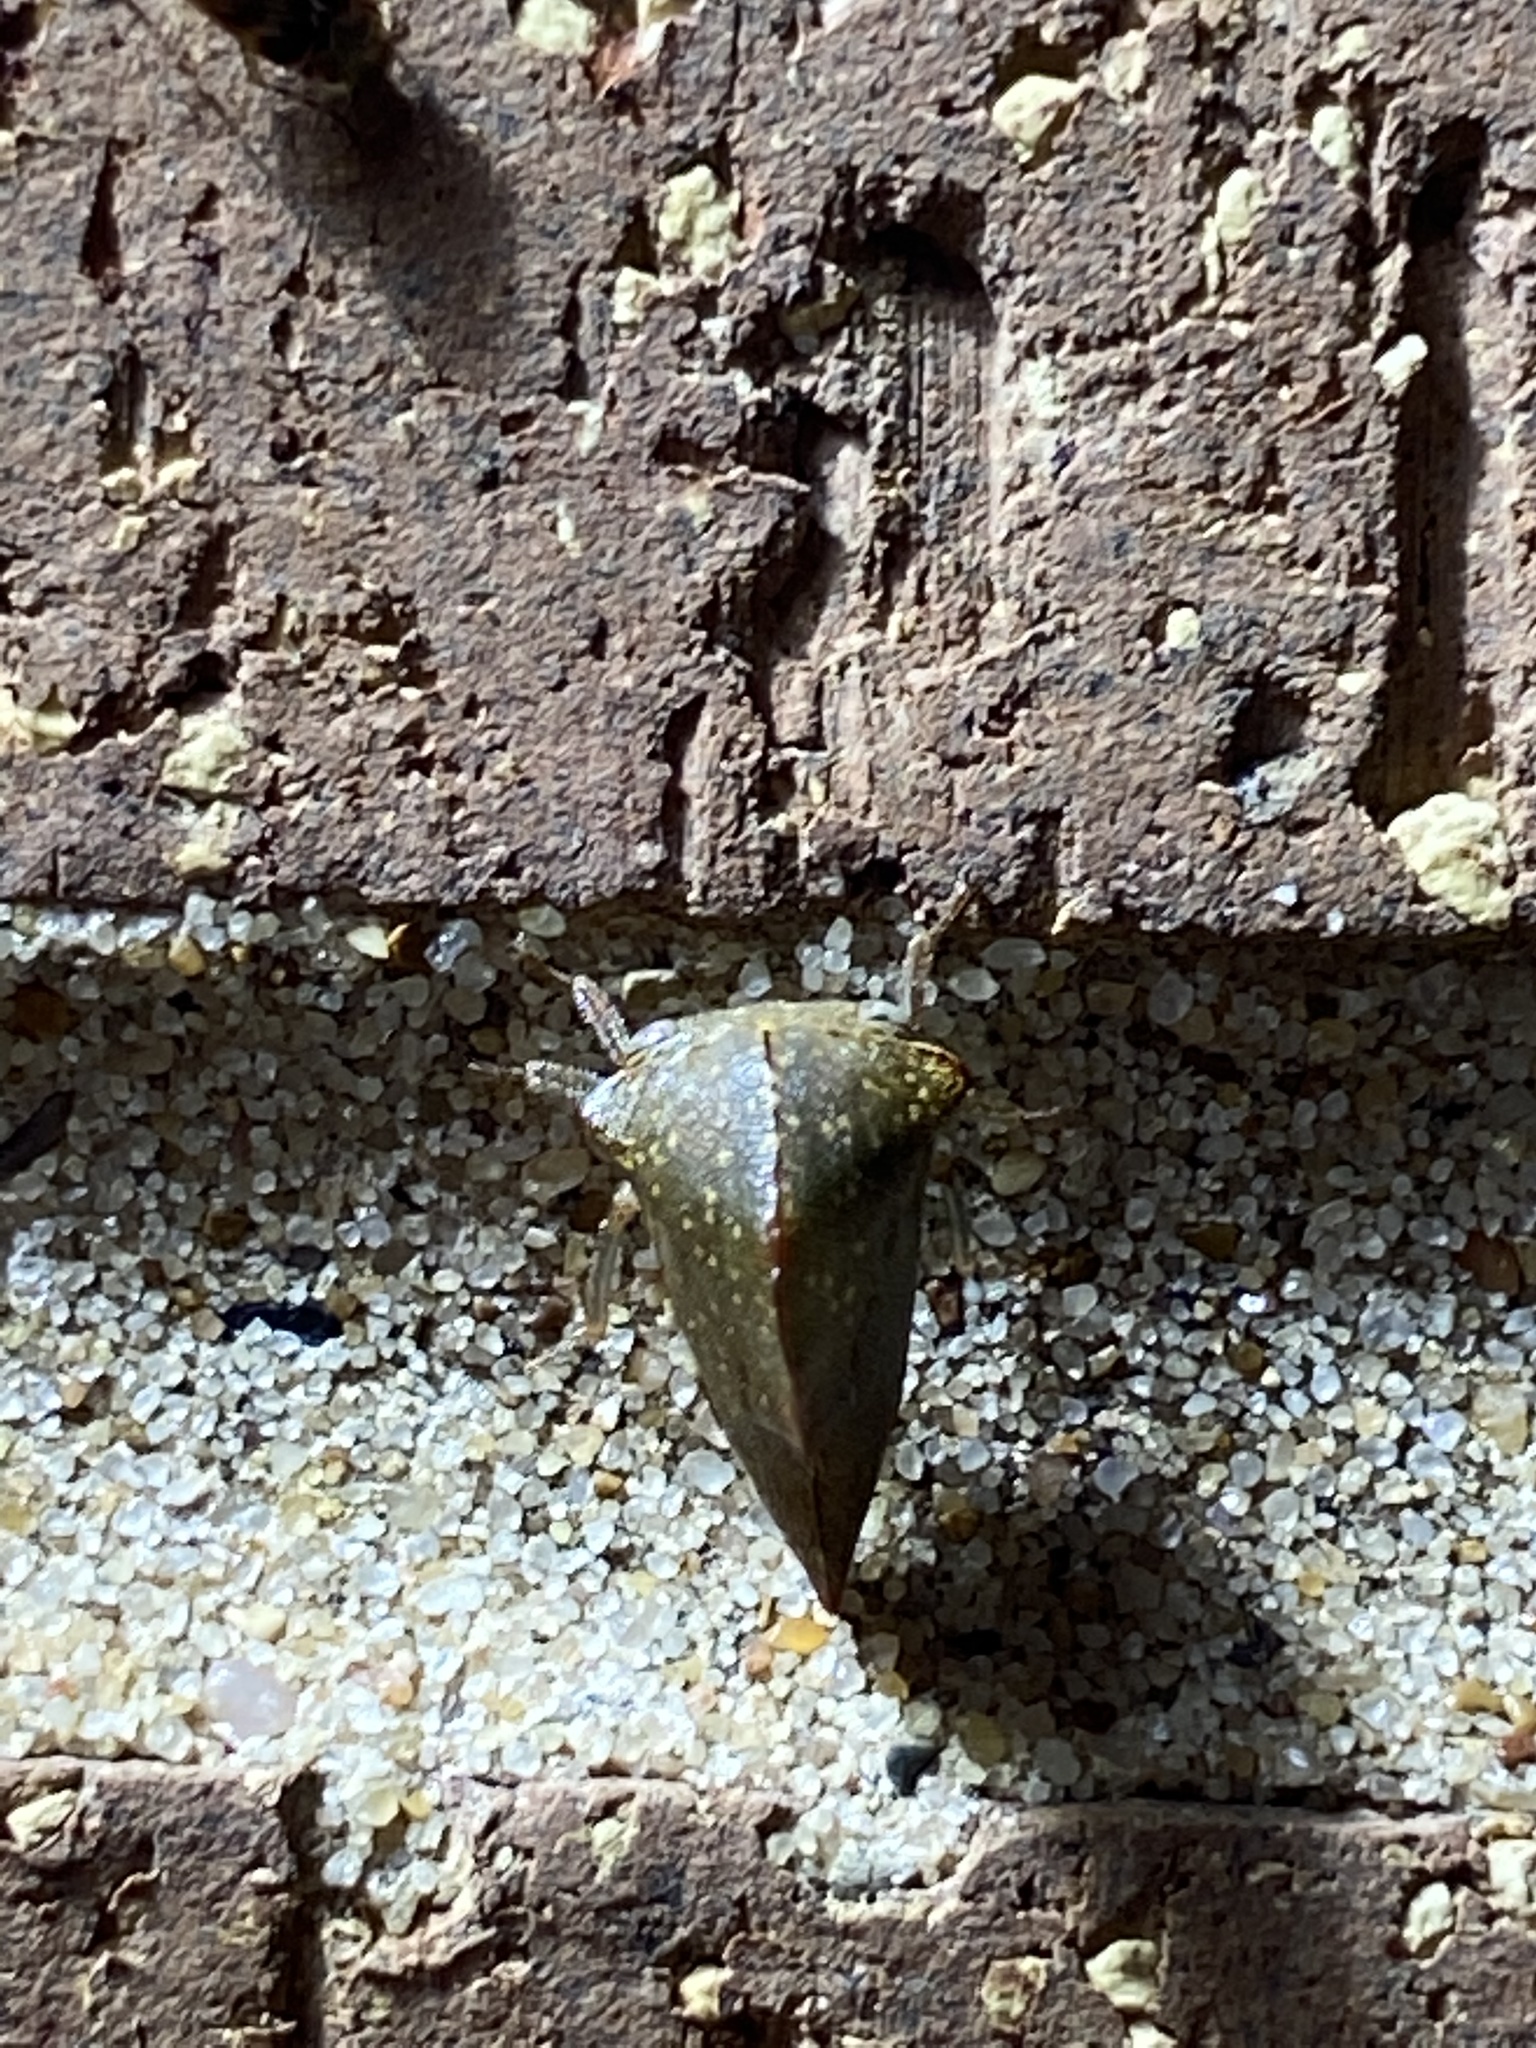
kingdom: Animalia
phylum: Arthropoda
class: Insecta
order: Hemiptera
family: Membracidae
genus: Telamona
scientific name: Telamona monticola
